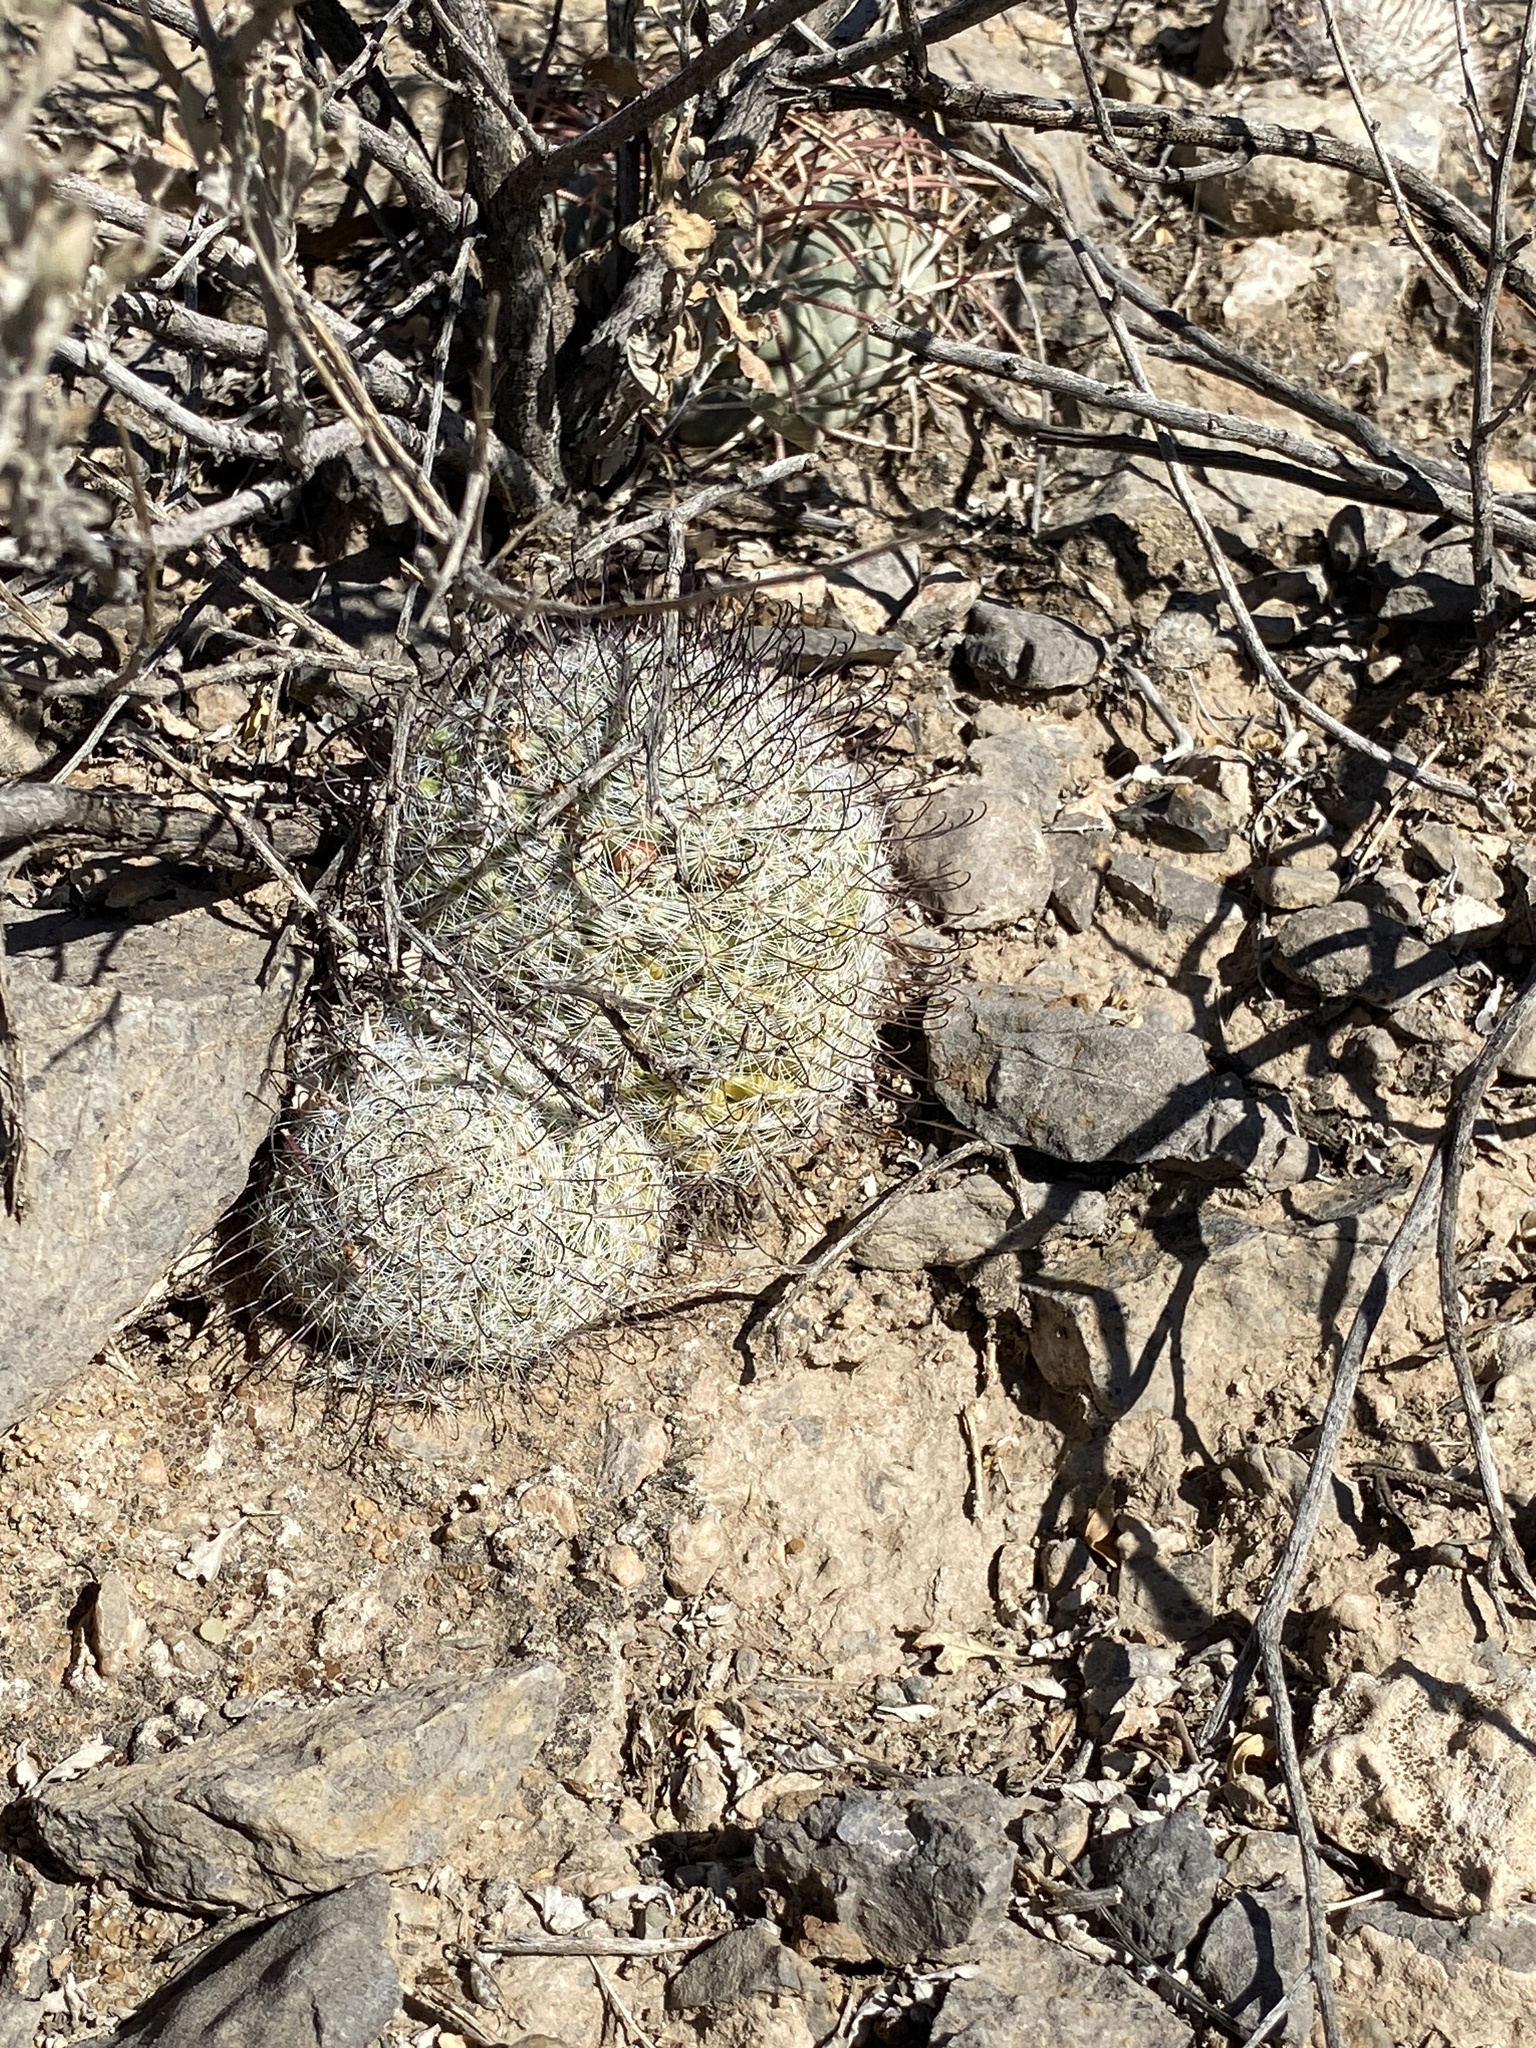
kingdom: Plantae
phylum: Tracheophyta
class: Magnoliopsida
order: Caryophyllales
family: Cactaceae
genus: Cochemiea
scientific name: Cochemiea grahamii
